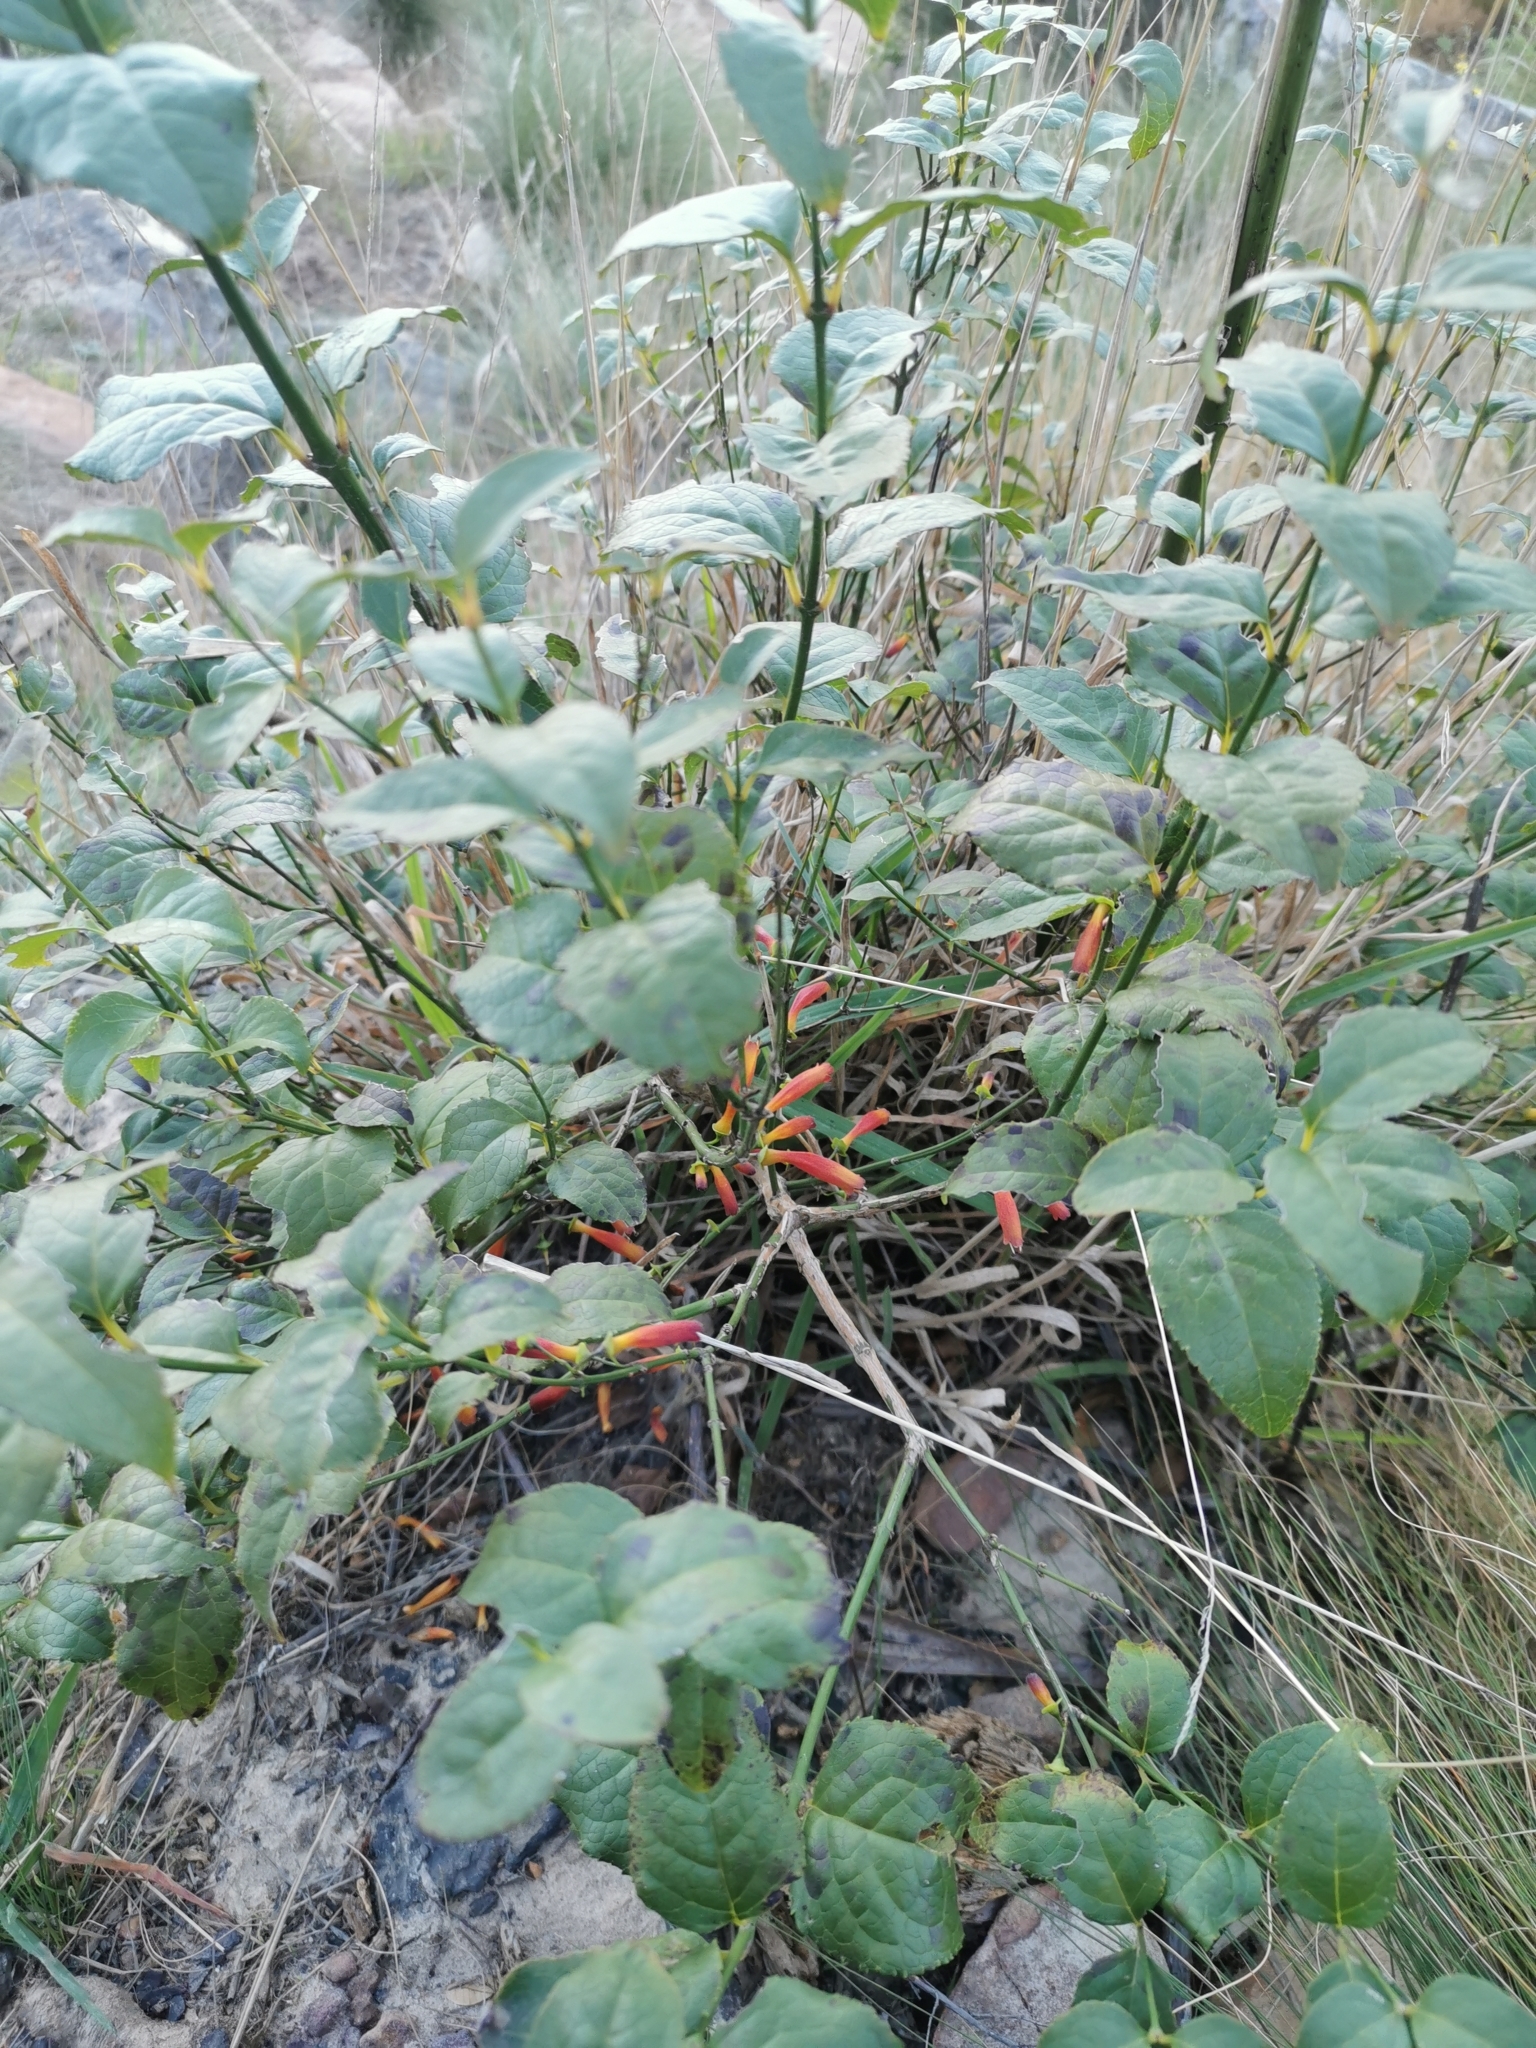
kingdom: Plantae
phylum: Tracheophyta
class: Magnoliopsida
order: Lamiales
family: Stilbaceae
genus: Halleria
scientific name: Halleria lucida
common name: Tree fuschia
